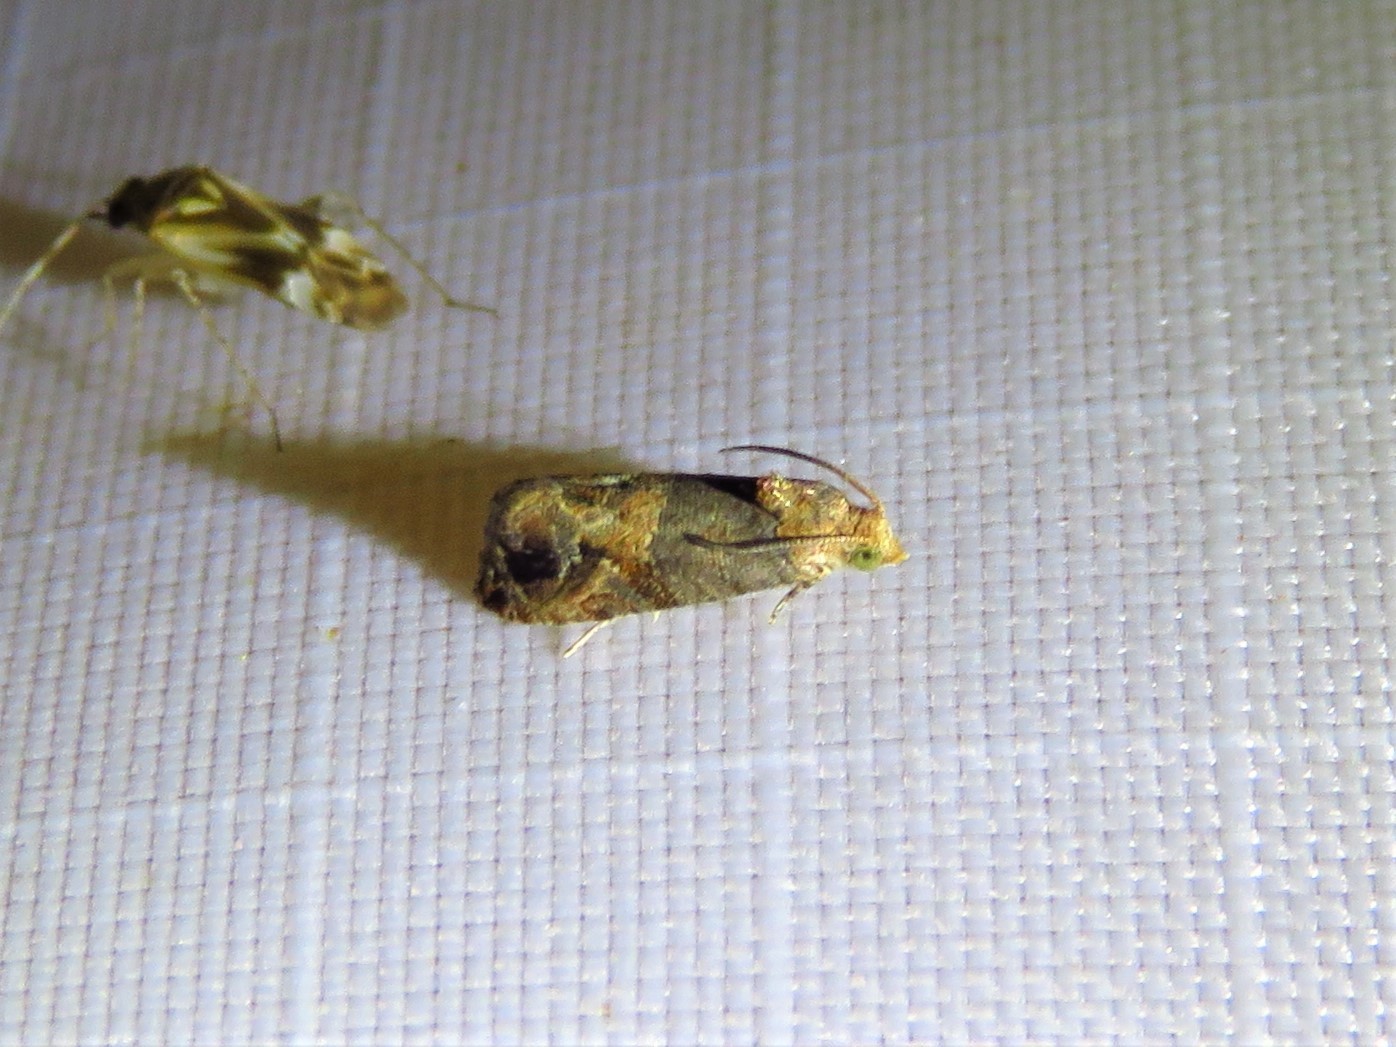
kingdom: Animalia
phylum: Arthropoda
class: Insecta
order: Lepidoptera
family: Tortricidae
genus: Paralobesia
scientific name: Paralobesia viteana
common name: Grape berry moth
